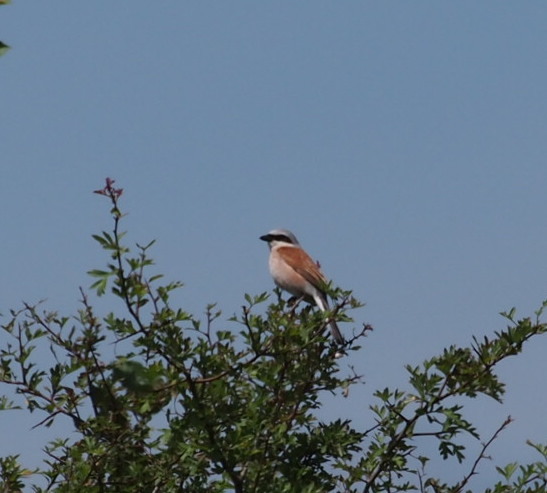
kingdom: Animalia
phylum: Chordata
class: Aves
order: Passeriformes
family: Laniidae
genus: Lanius
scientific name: Lanius collurio
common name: Red-backed shrike
